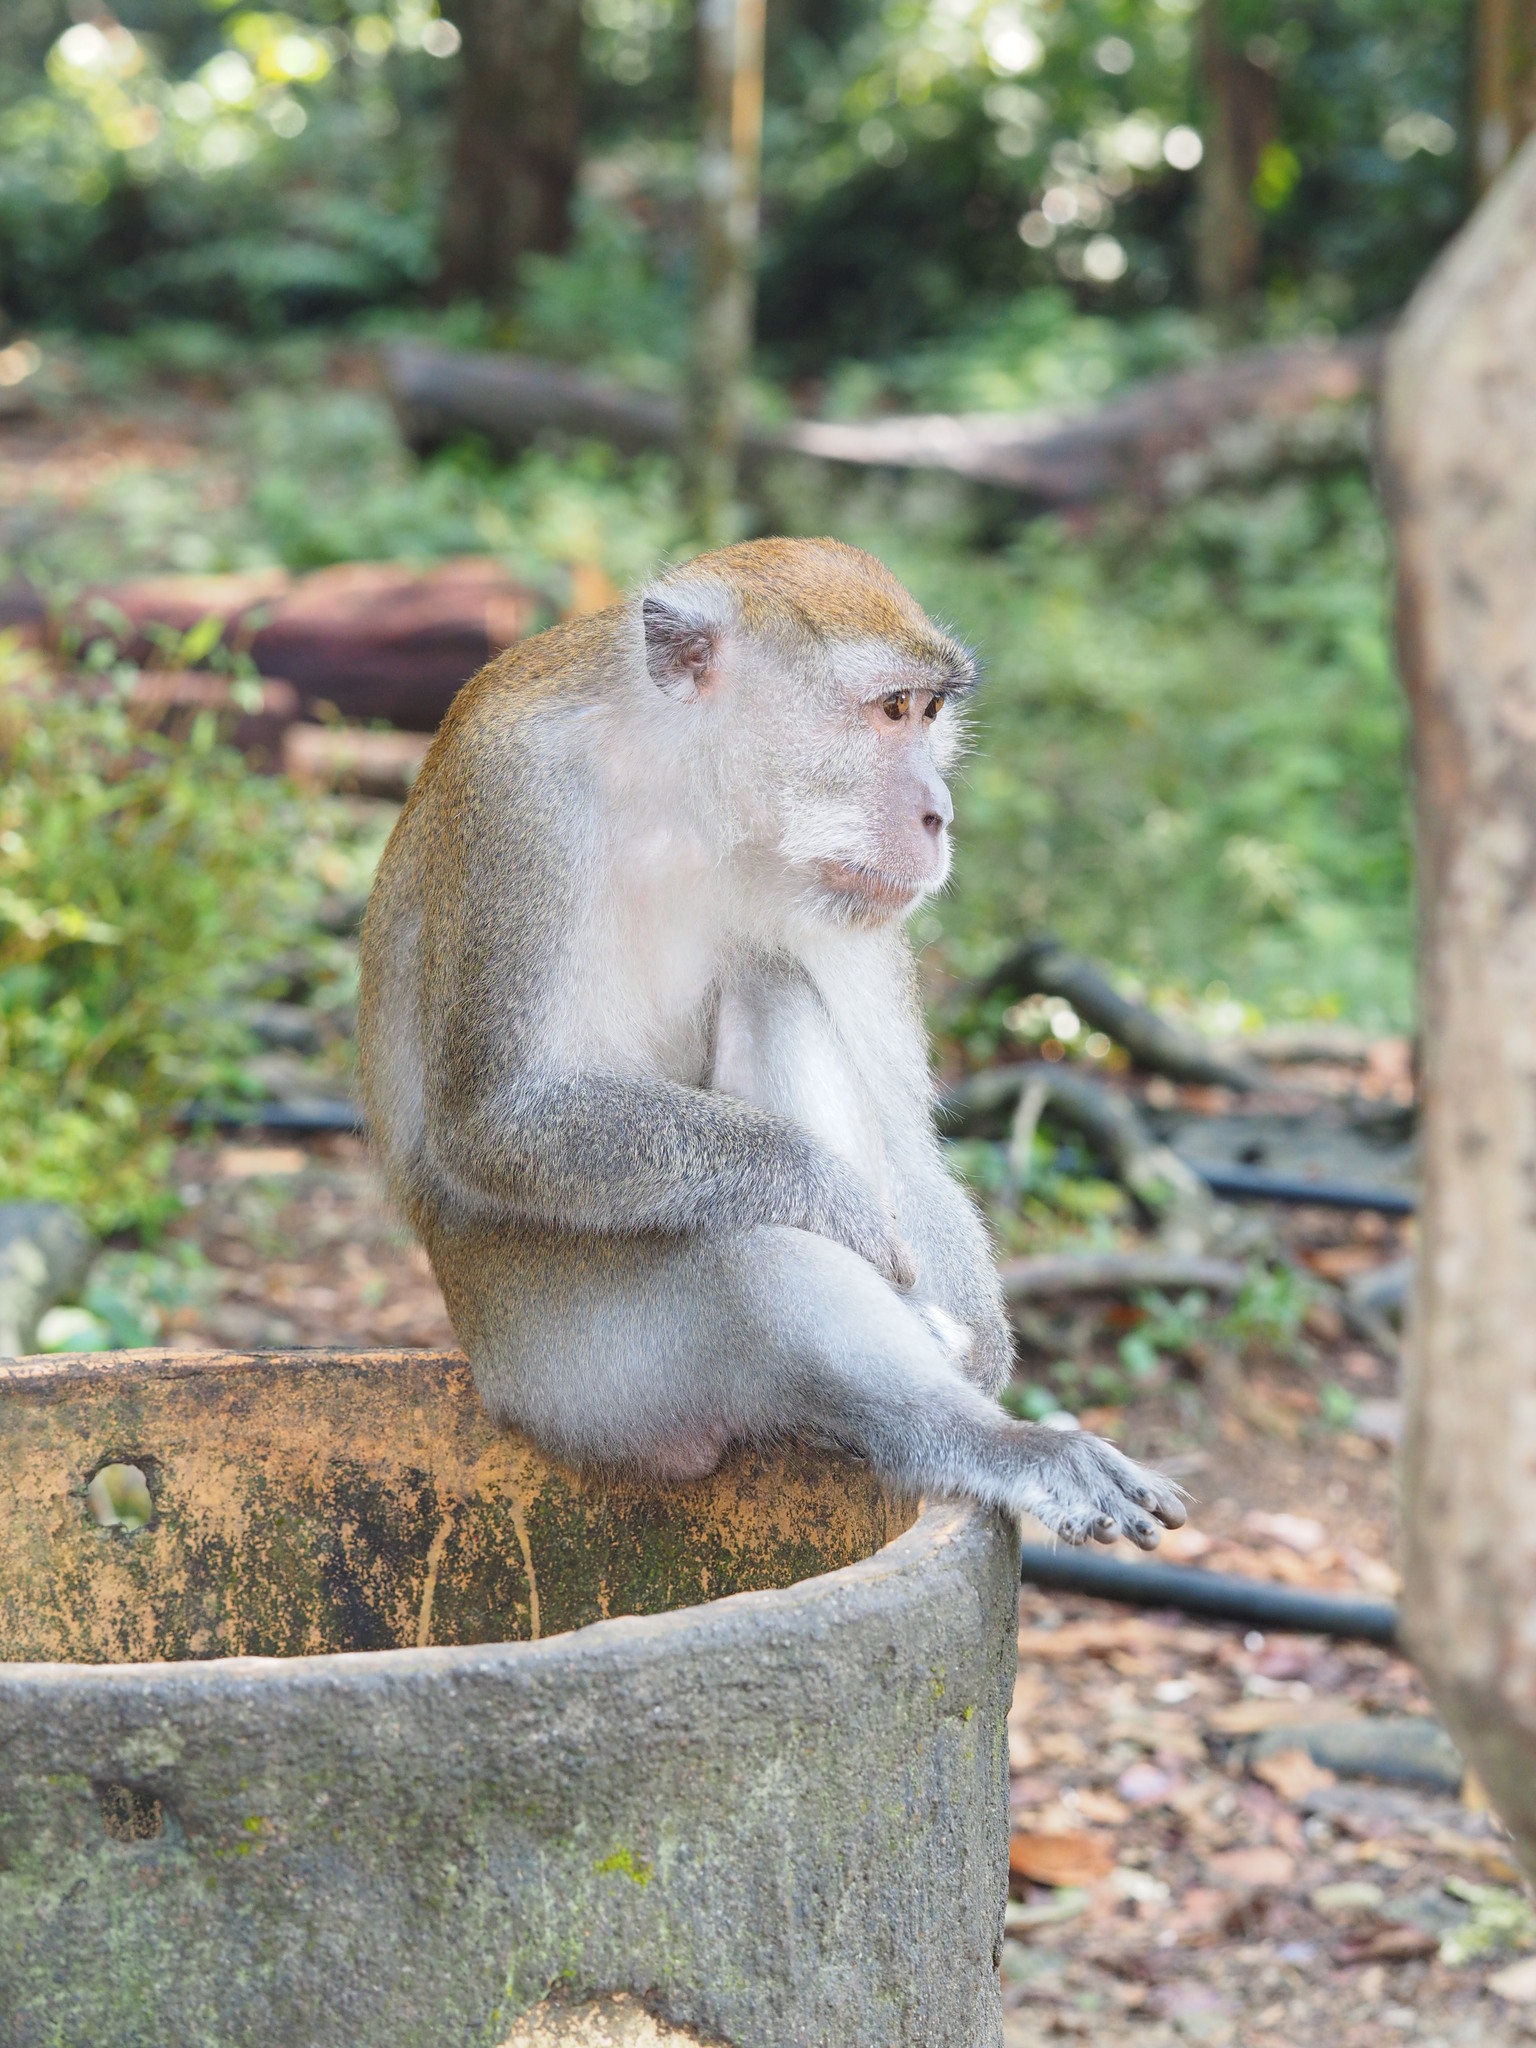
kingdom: Animalia
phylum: Chordata
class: Mammalia
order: Primates
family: Cercopithecidae
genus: Macaca
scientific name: Macaca fascicularis
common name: Crab-eating macaque
